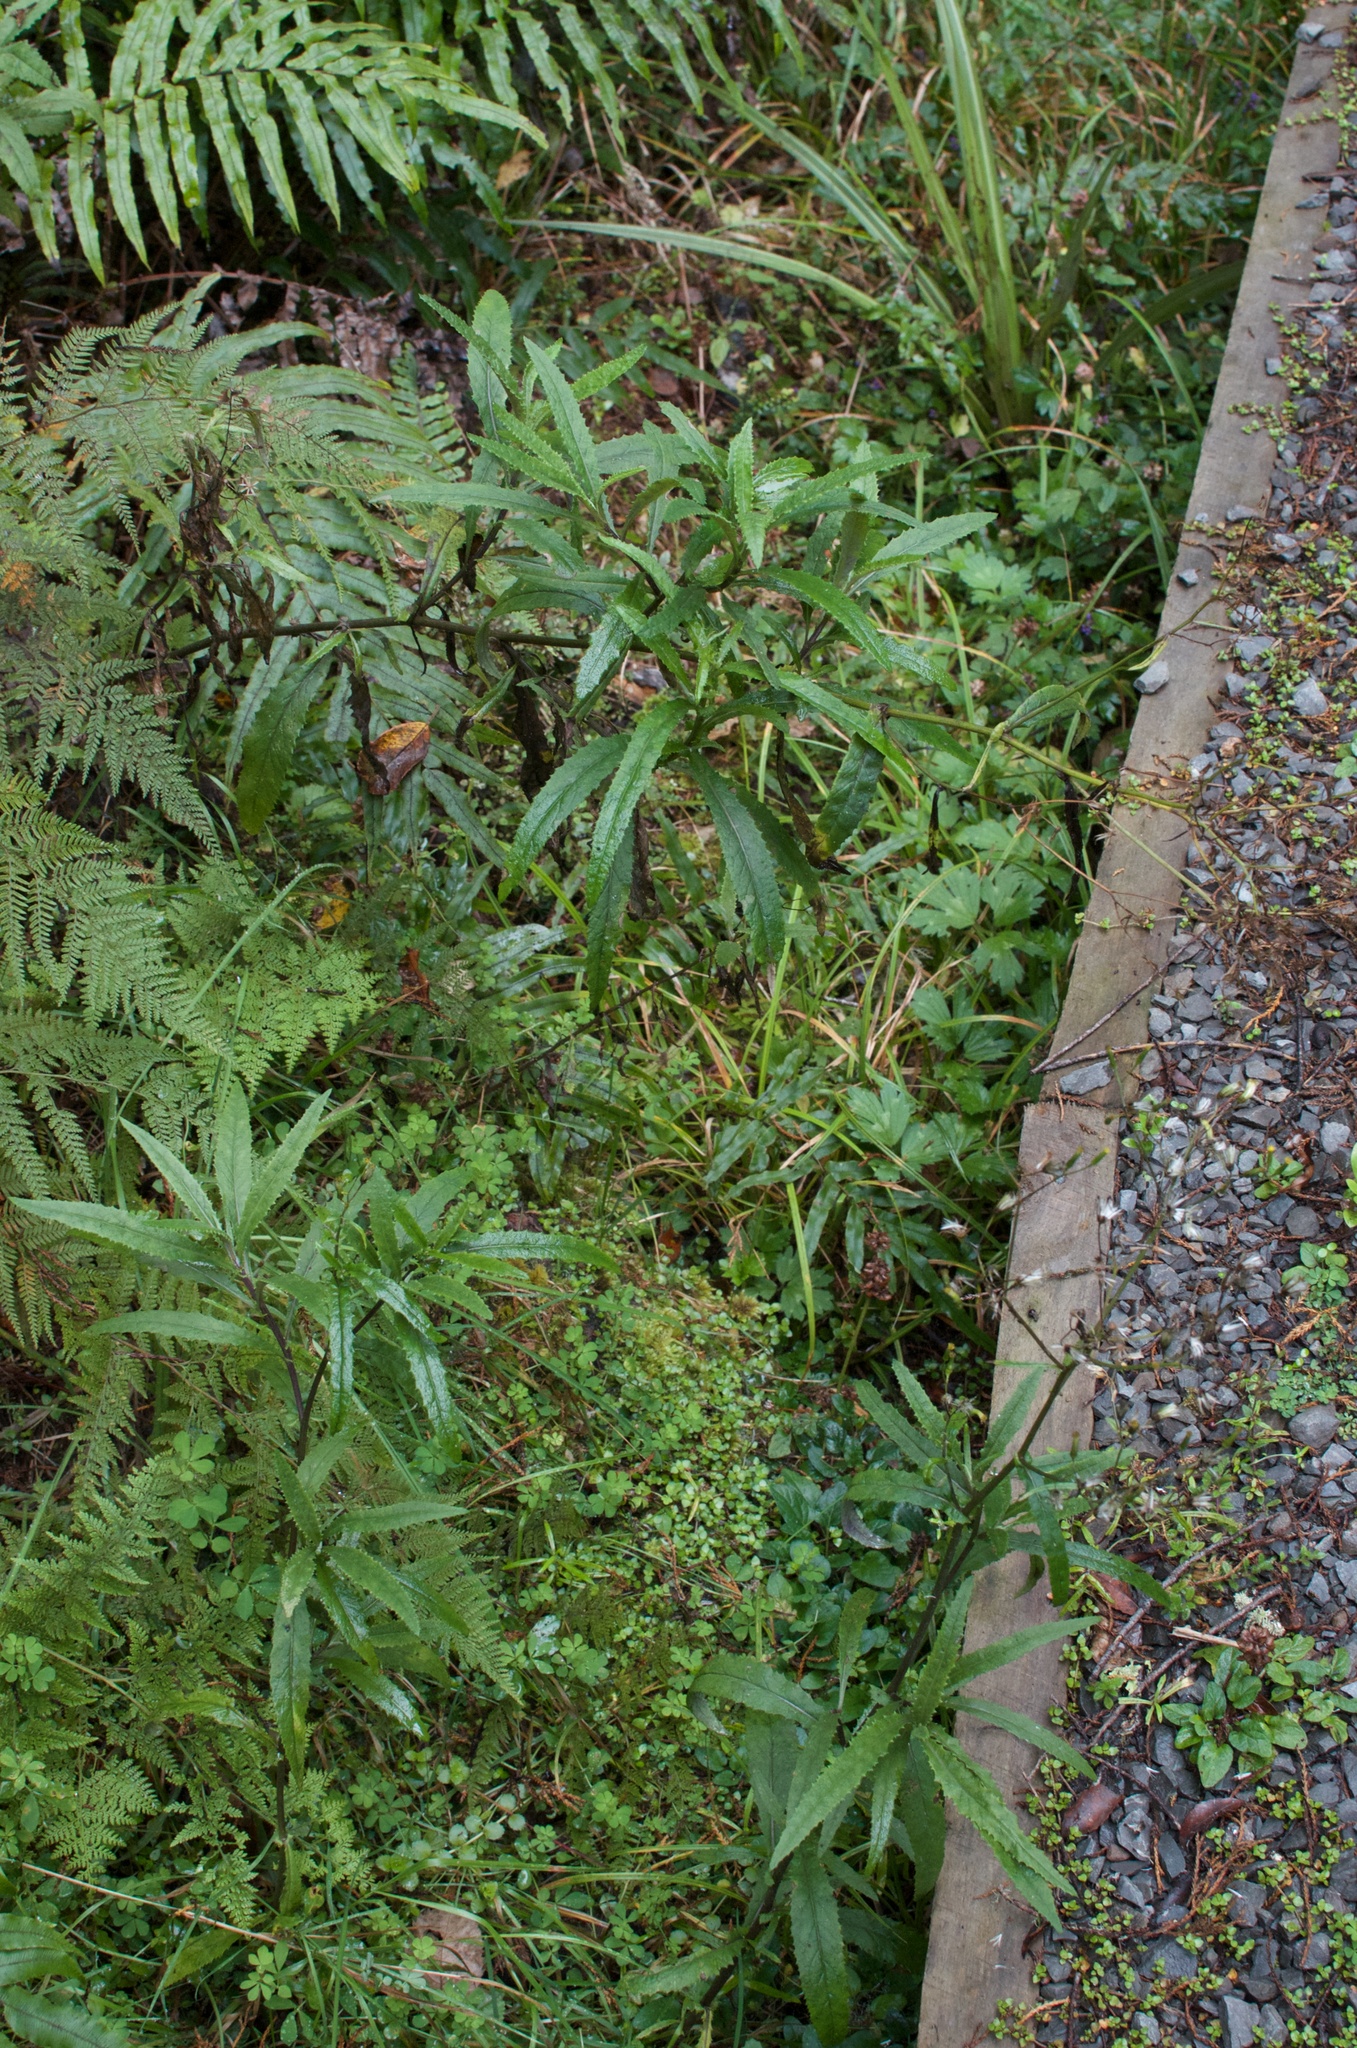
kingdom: Plantae
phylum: Tracheophyta
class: Magnoliopsida
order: Asterales
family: Asteraceae
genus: Senecio
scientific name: Senecio minimus
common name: Toothed fireweed
